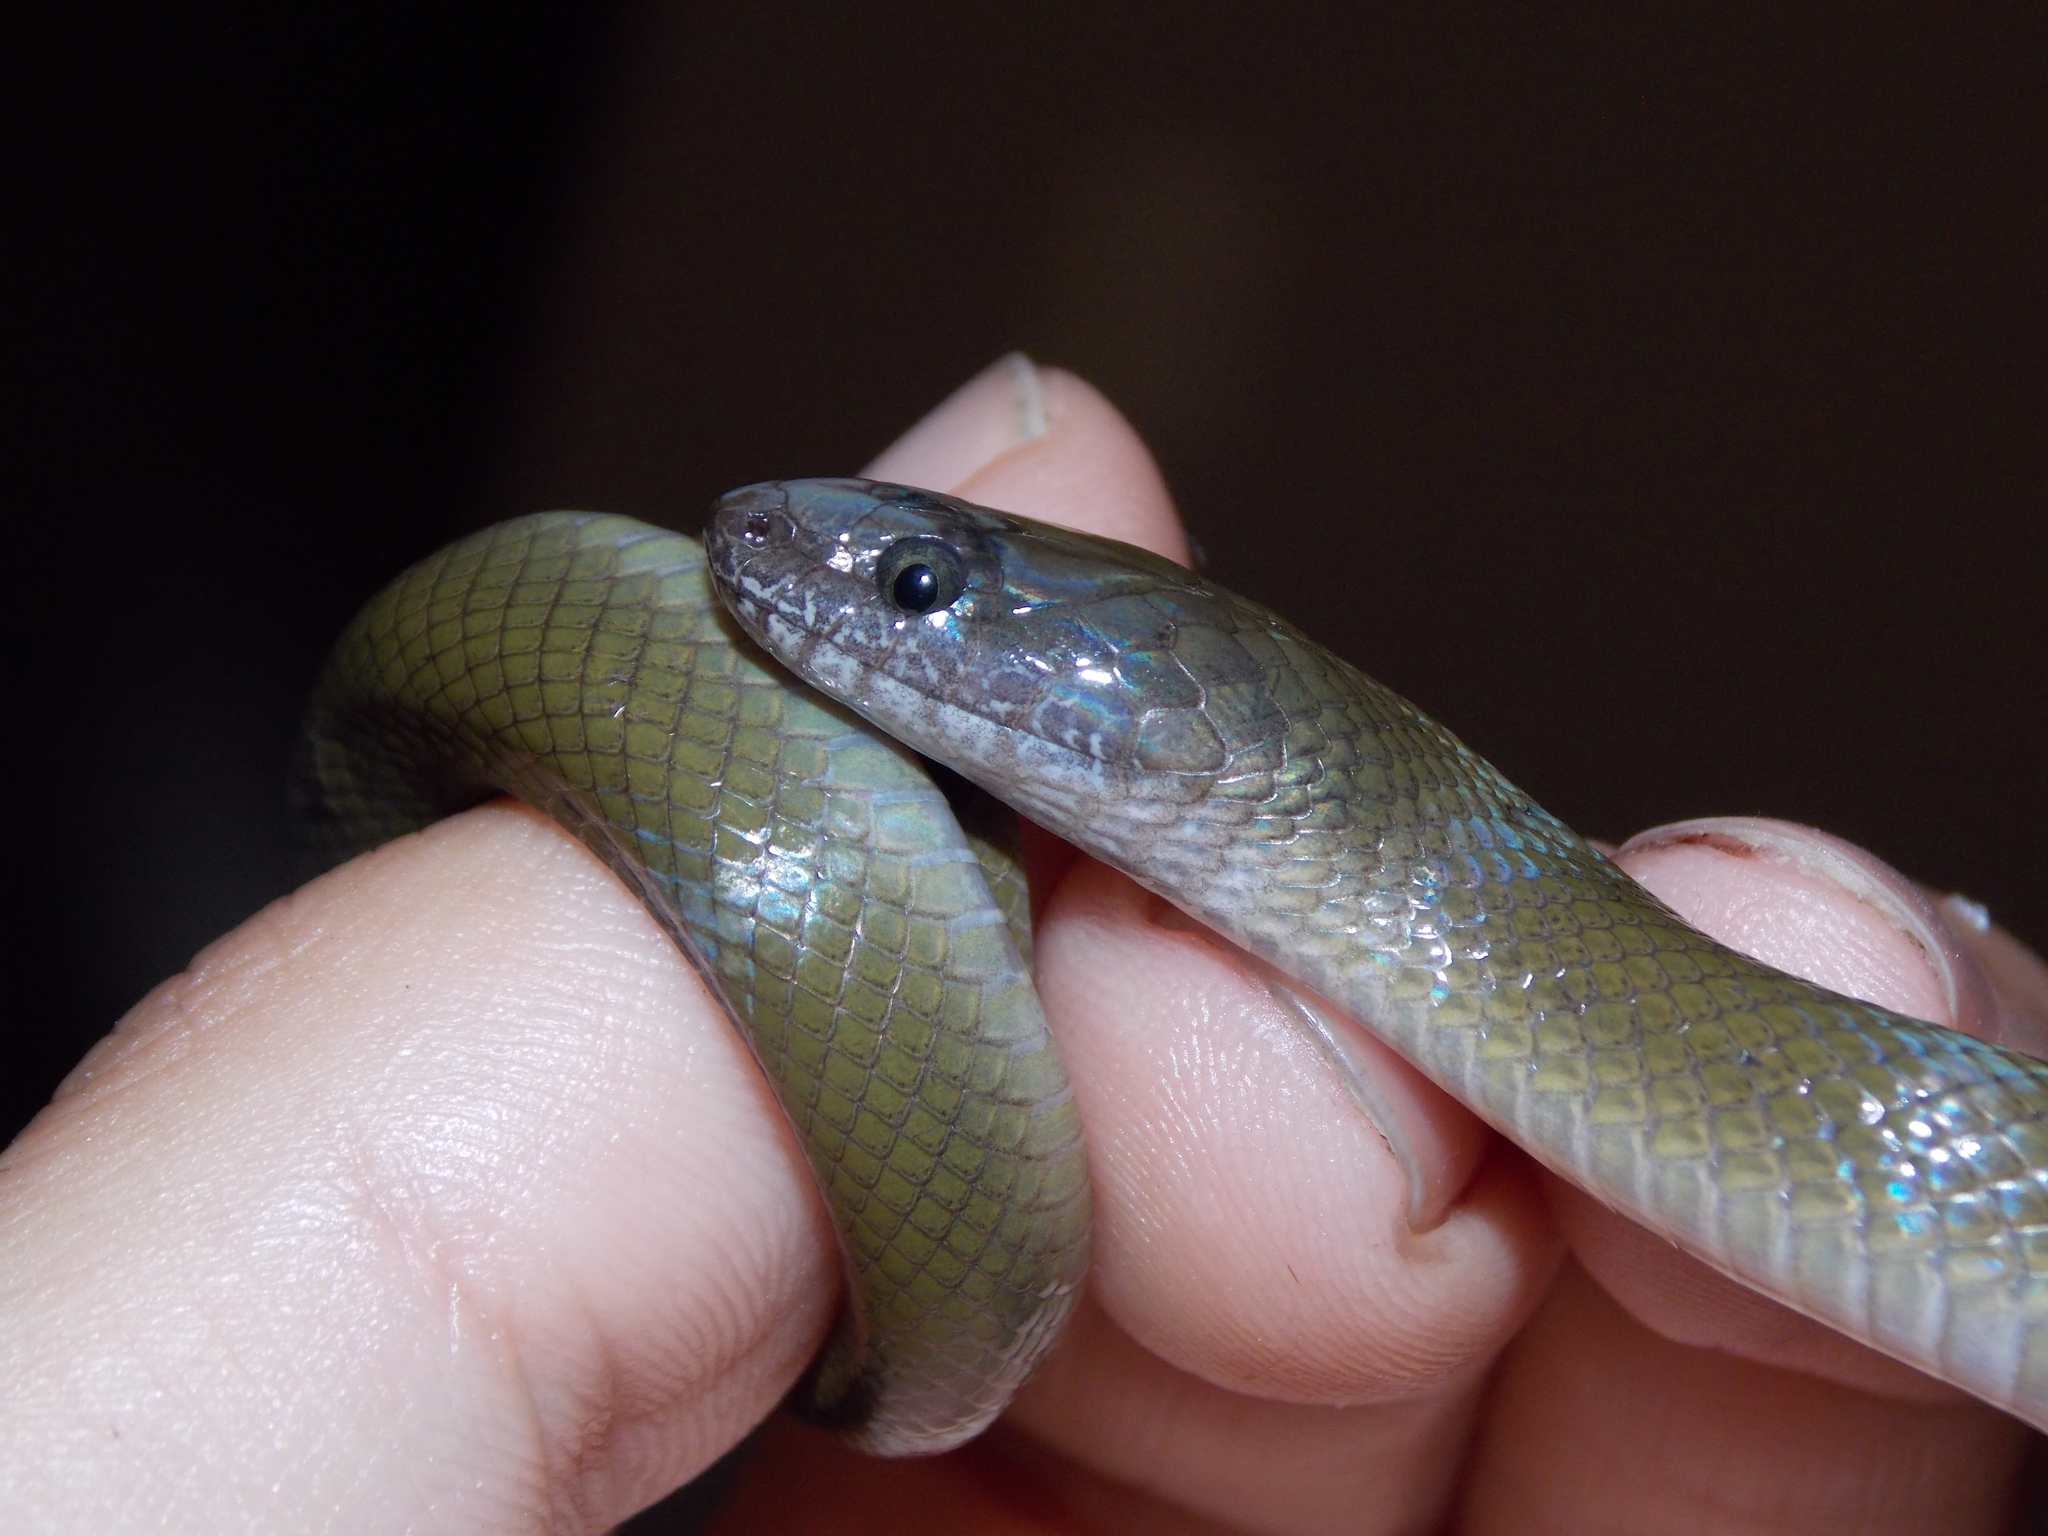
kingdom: Animalia
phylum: Chordata
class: Squamata
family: Lamprophiidae
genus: Lycodonomorphus
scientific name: Lycodonomorphus inornatus
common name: Black house snake
